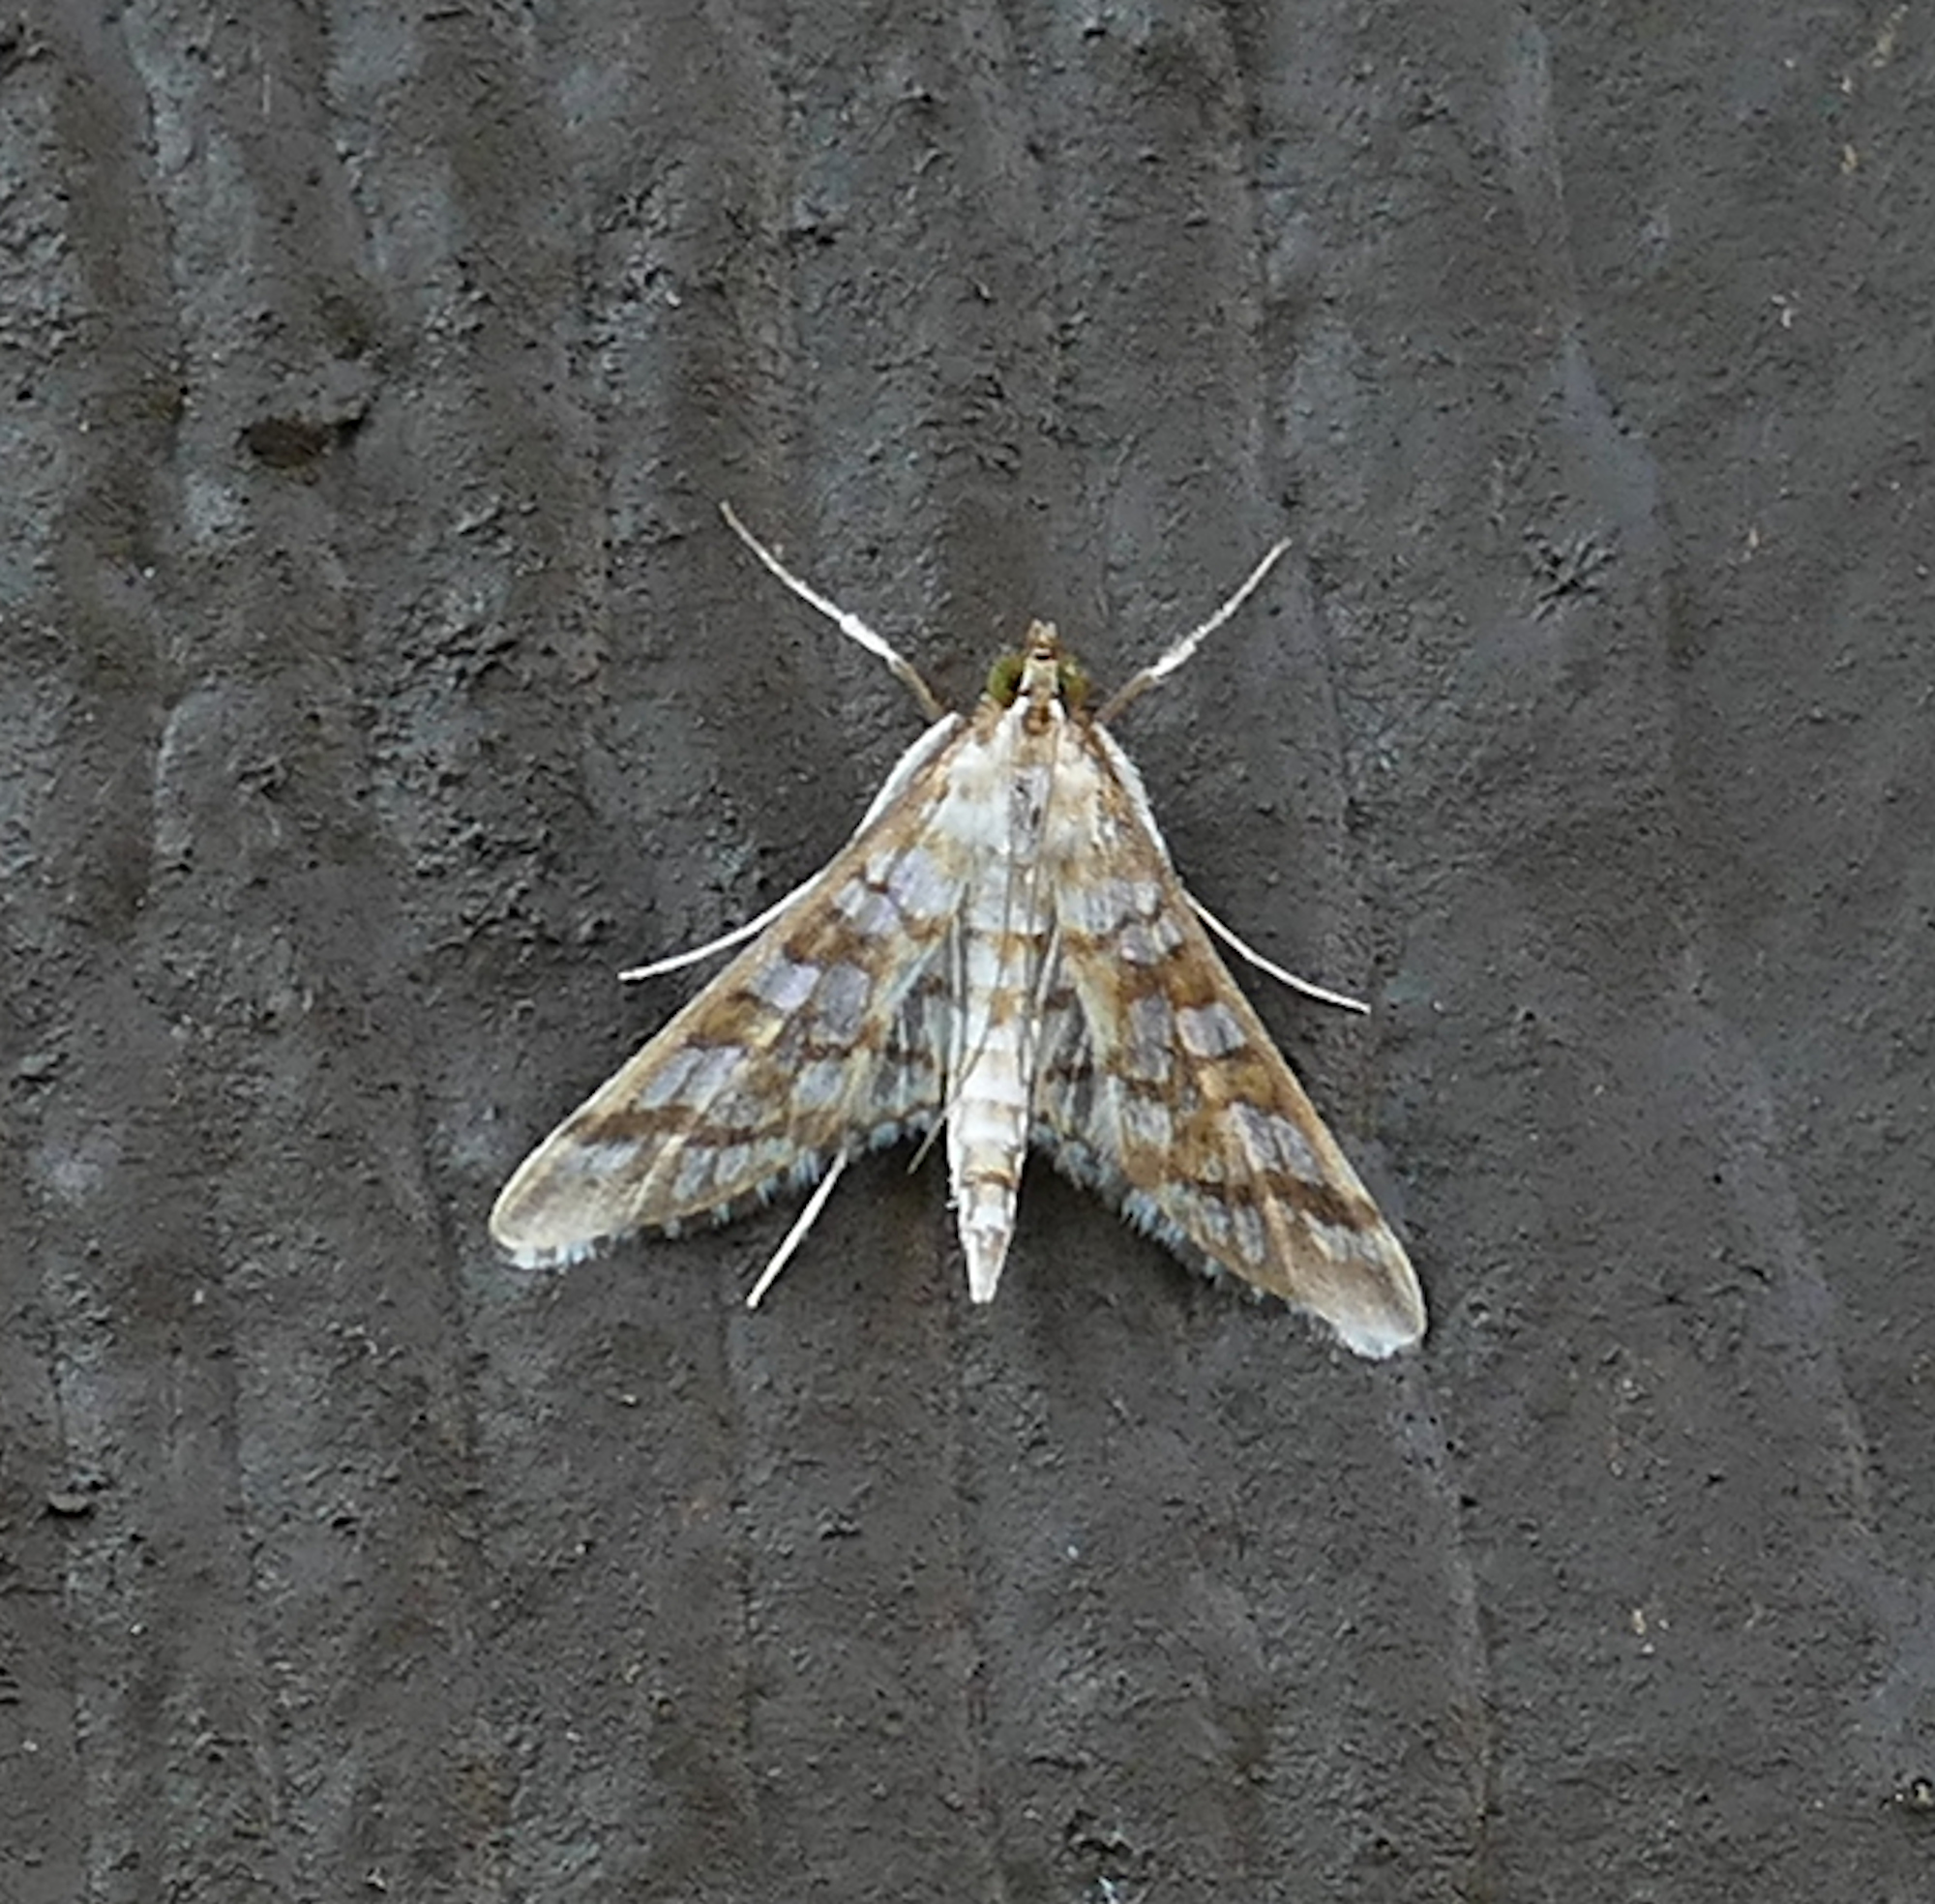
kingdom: Animalia
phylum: Arthropoda
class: Insecta
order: Lepidoptera
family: Crambidae
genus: Epipagis
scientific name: Epipagis fenestralis
